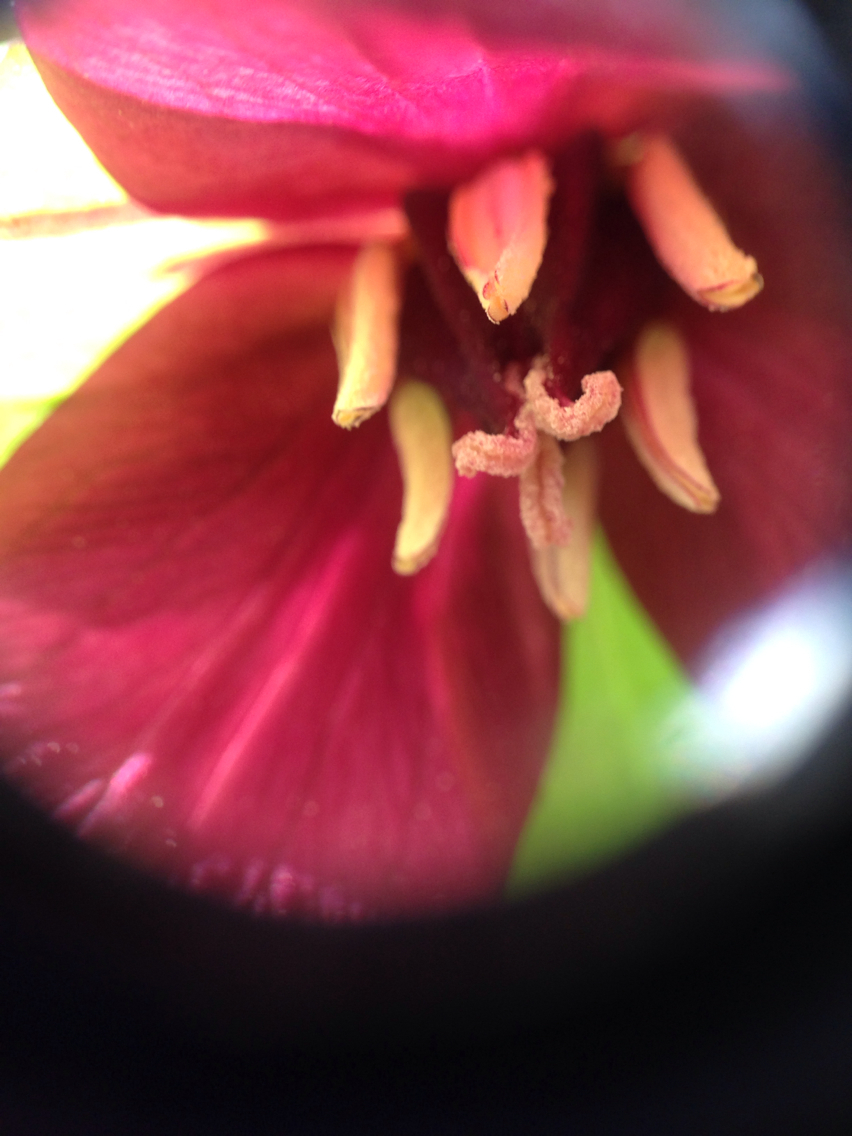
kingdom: Plantae
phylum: Tracheophyta
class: Liliopsida
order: Liliales
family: Melanthiaceae
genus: Trillium
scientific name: Trillium erectum
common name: Purple trillium
